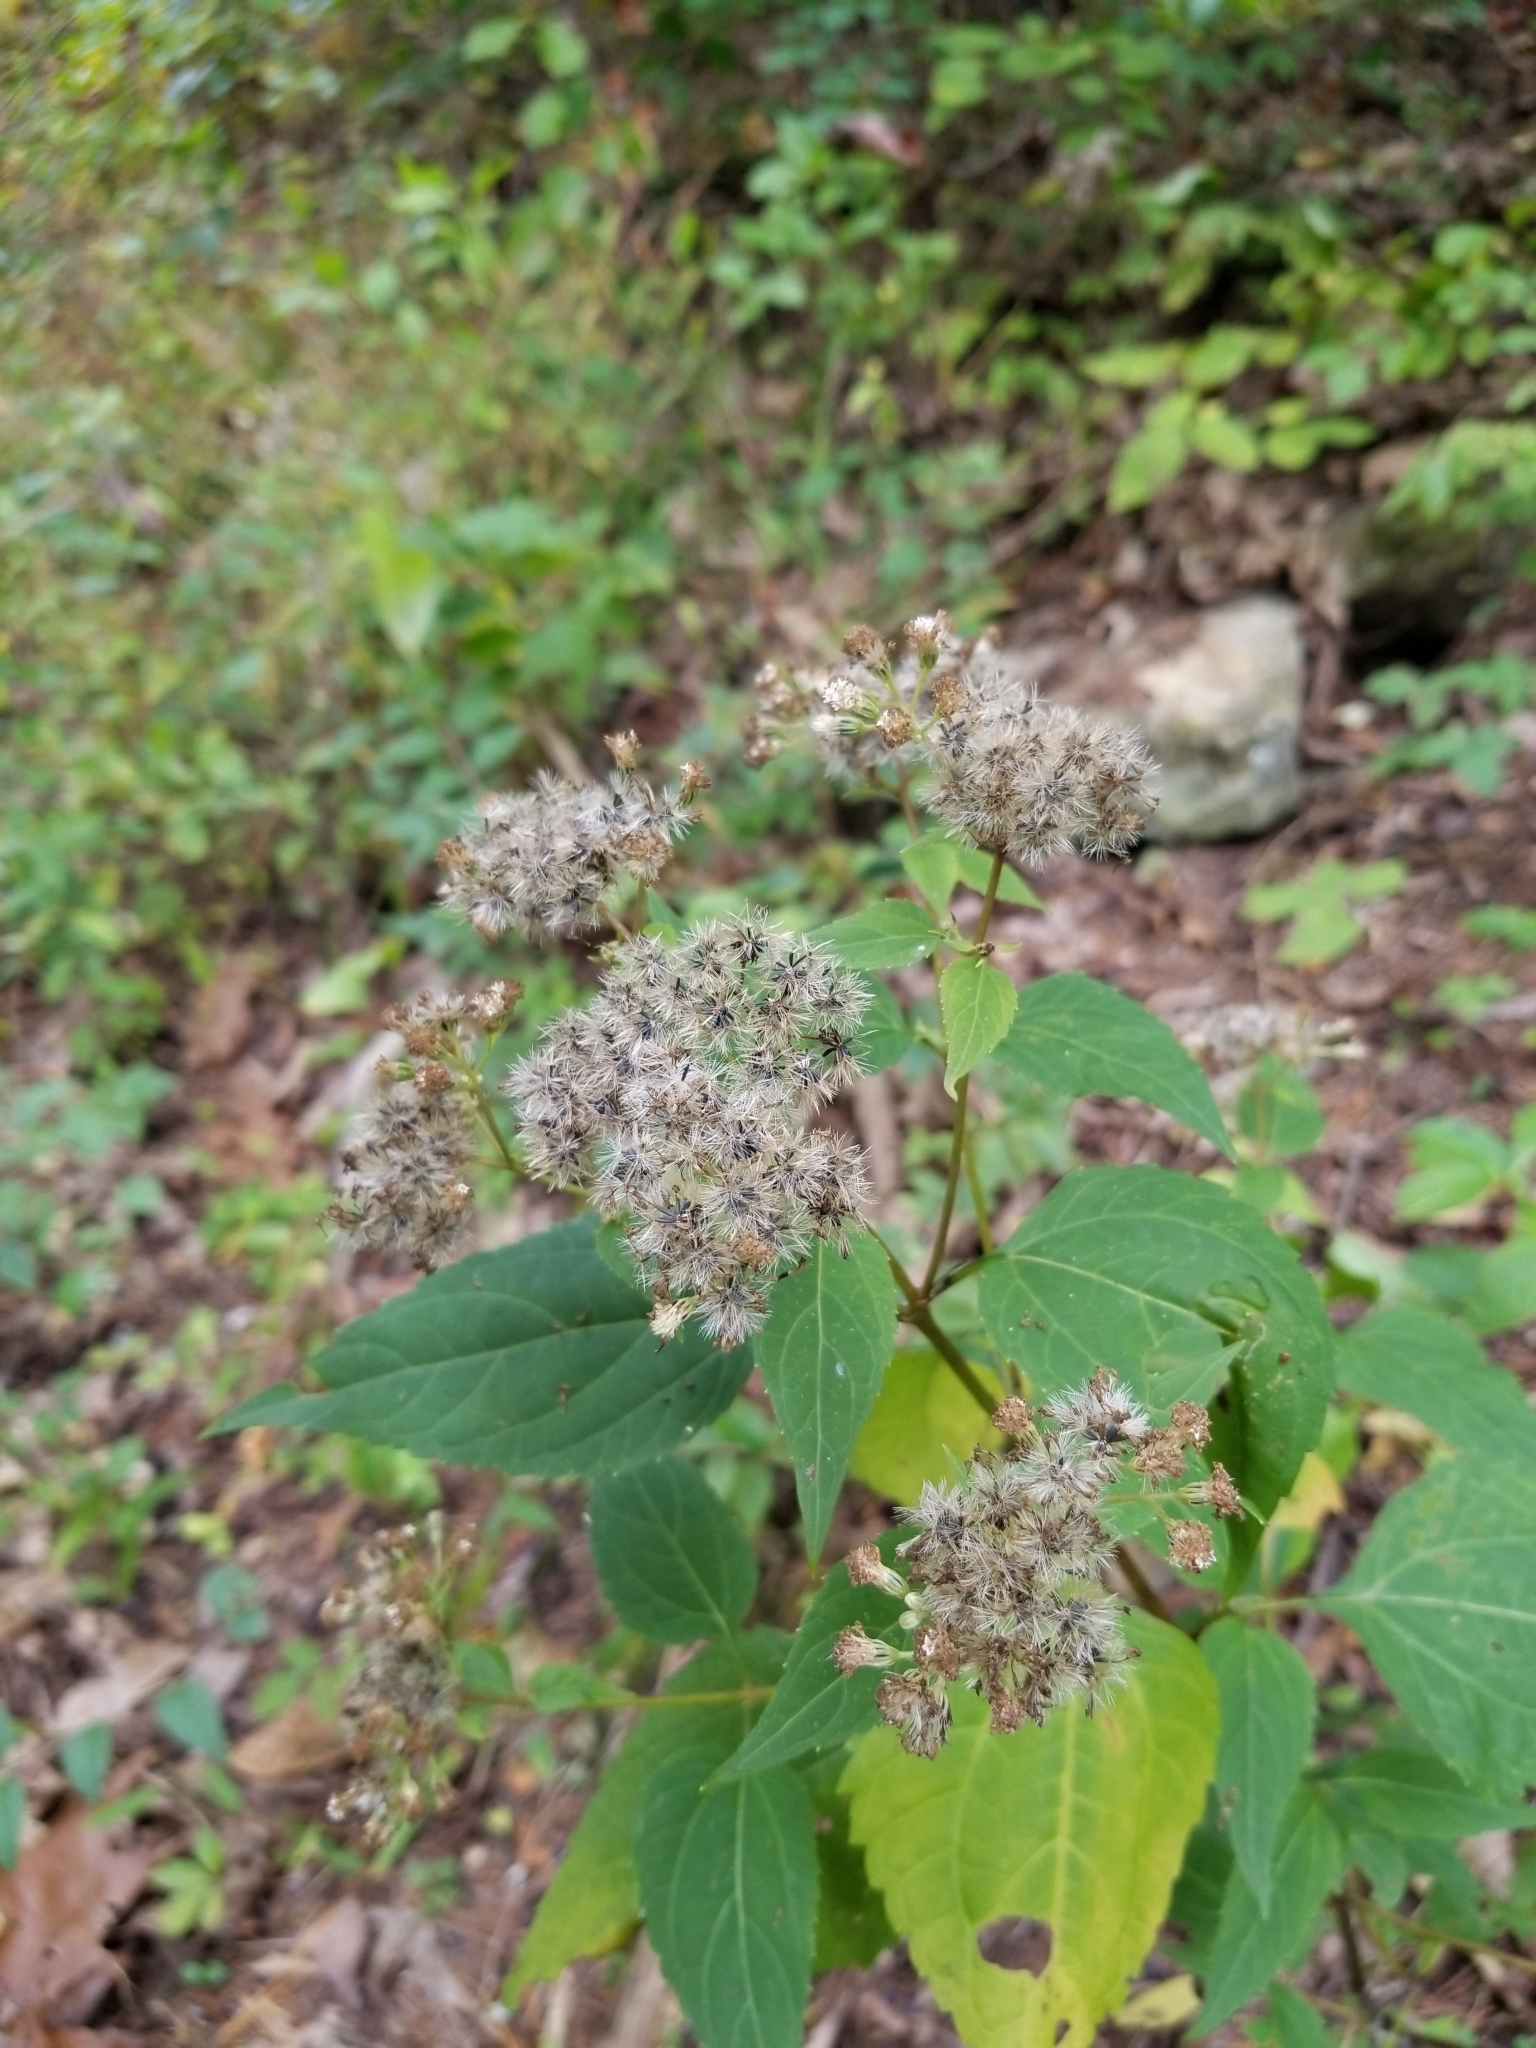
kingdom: Plantae
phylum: Tracheophyta
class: Magnoliopsida
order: Asterales
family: Asteraceae
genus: Ageratina
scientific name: Ageratina altissima
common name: White snakeroot
